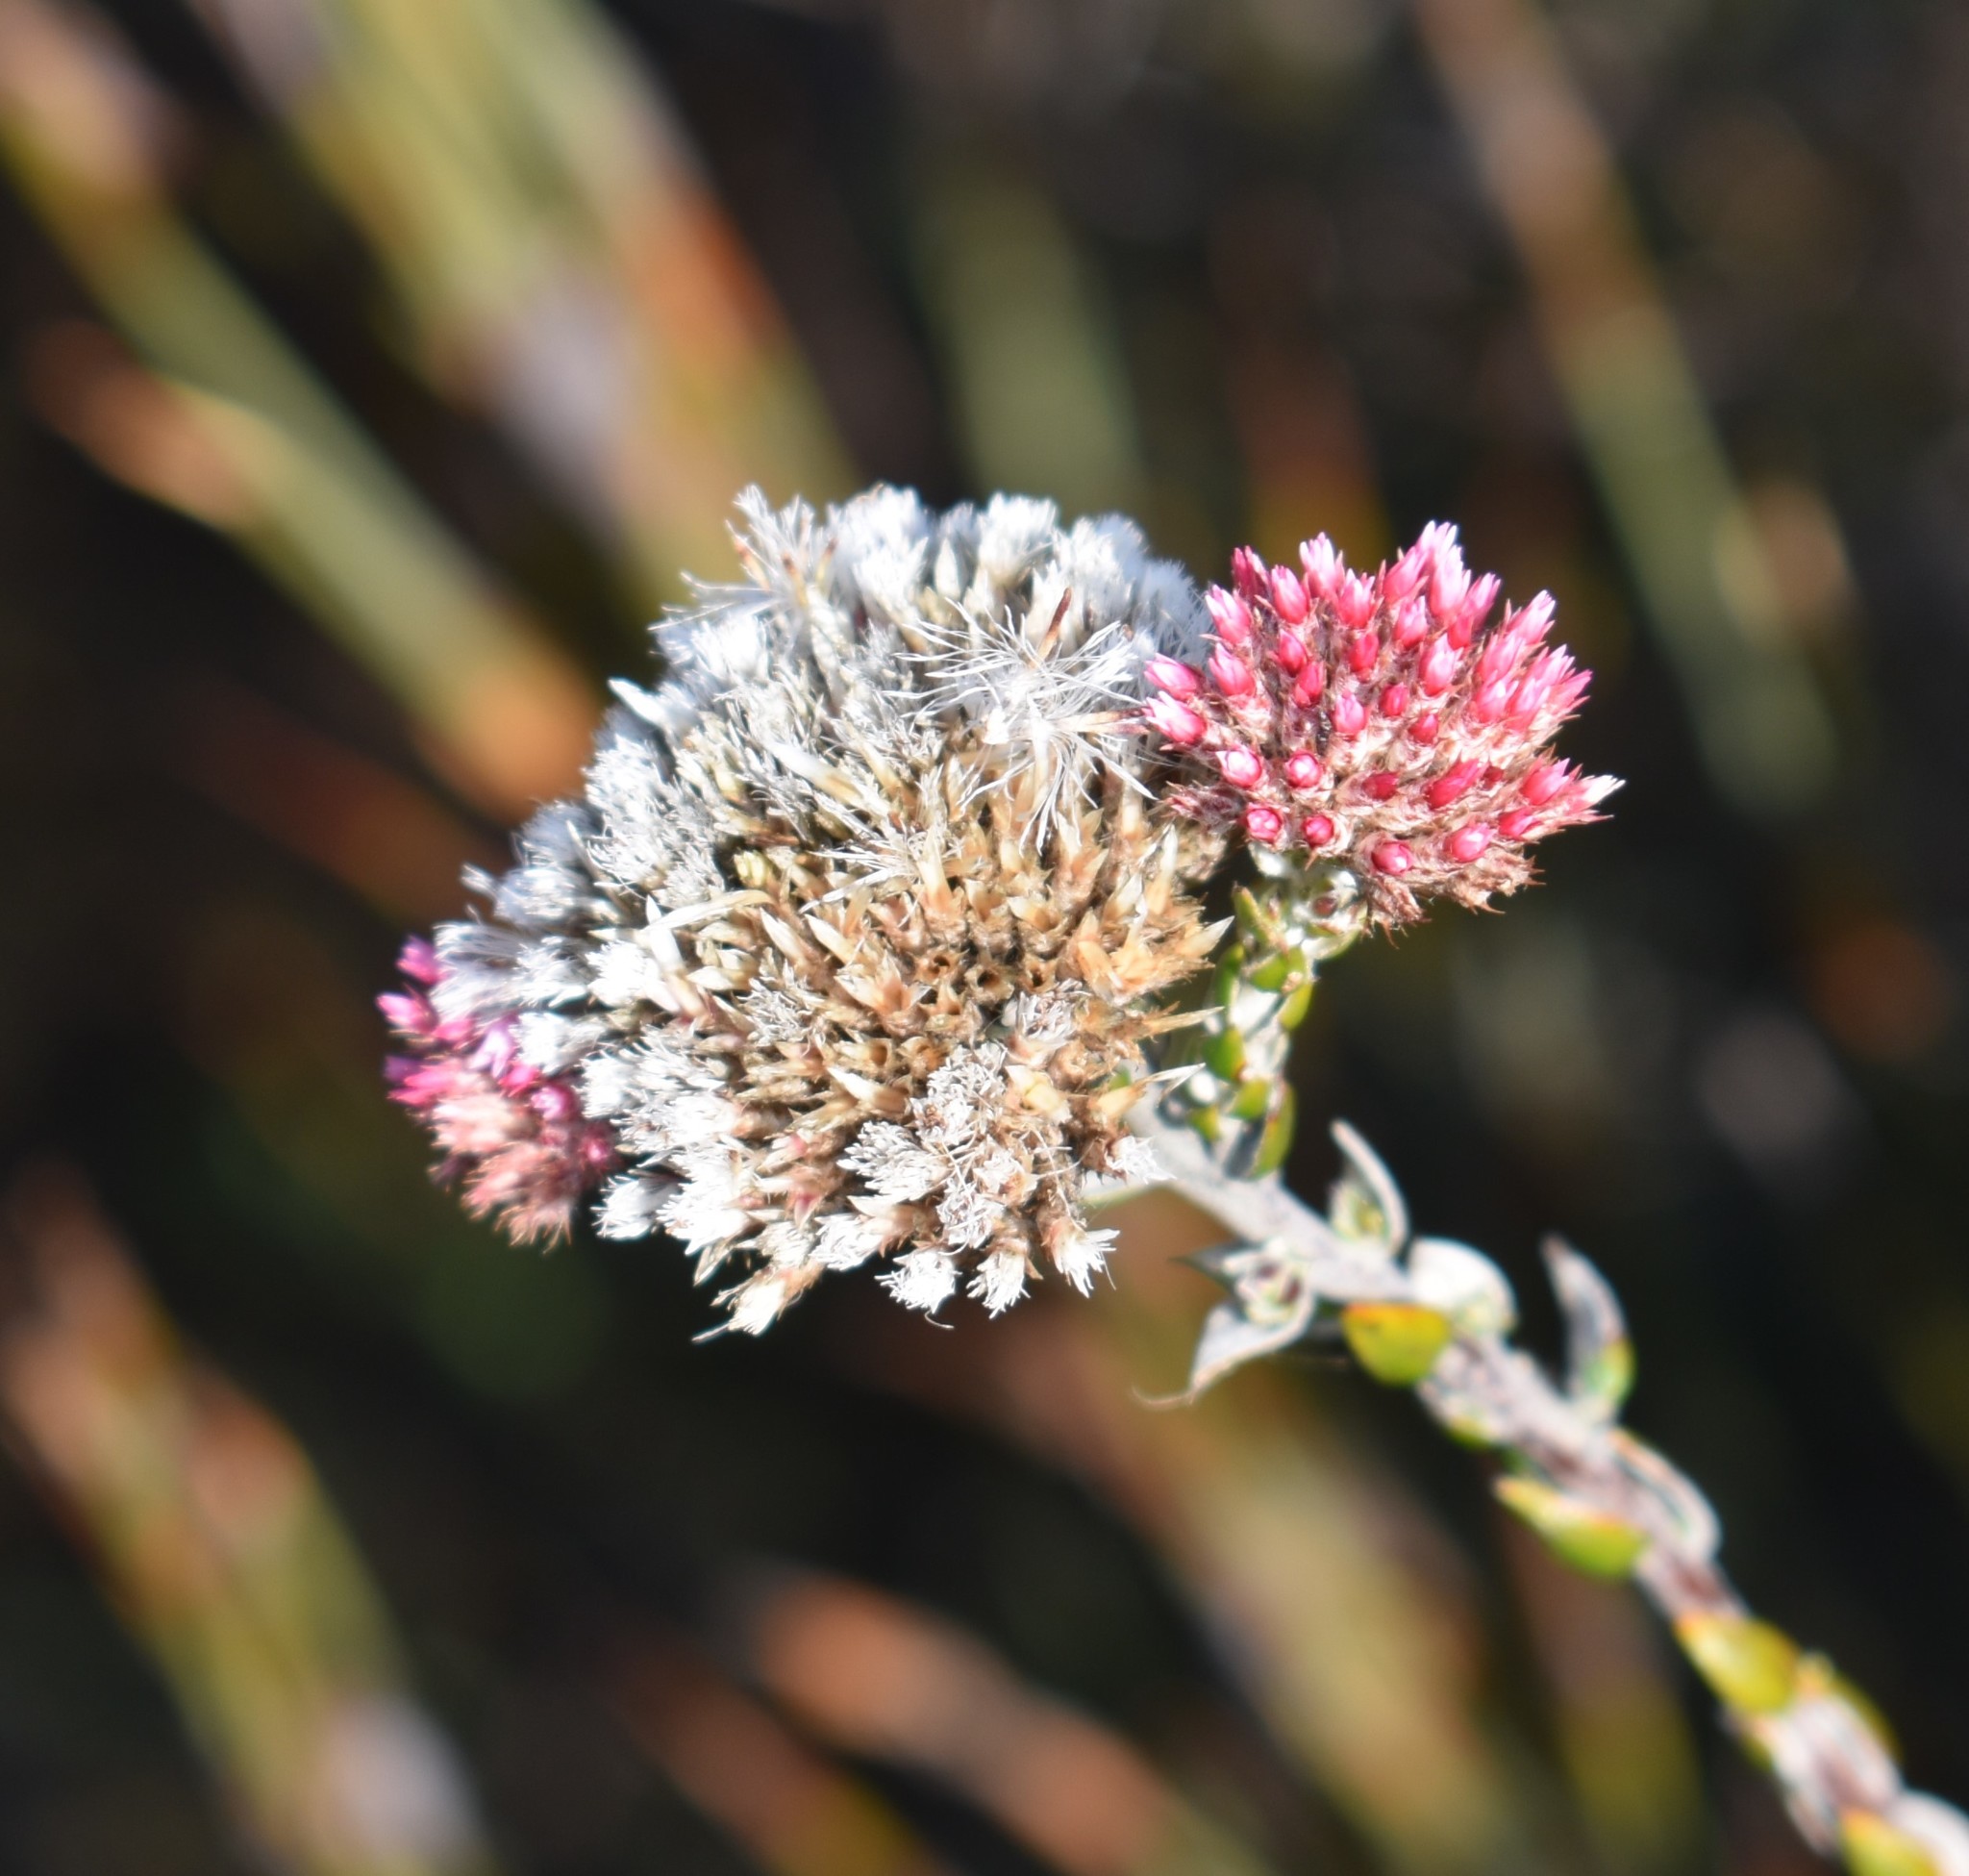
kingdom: Plantae
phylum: Tracheophyta
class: Magnoliopsida
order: Asterales
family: Asteraceae
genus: Metalasia
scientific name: Metalasia pungens
